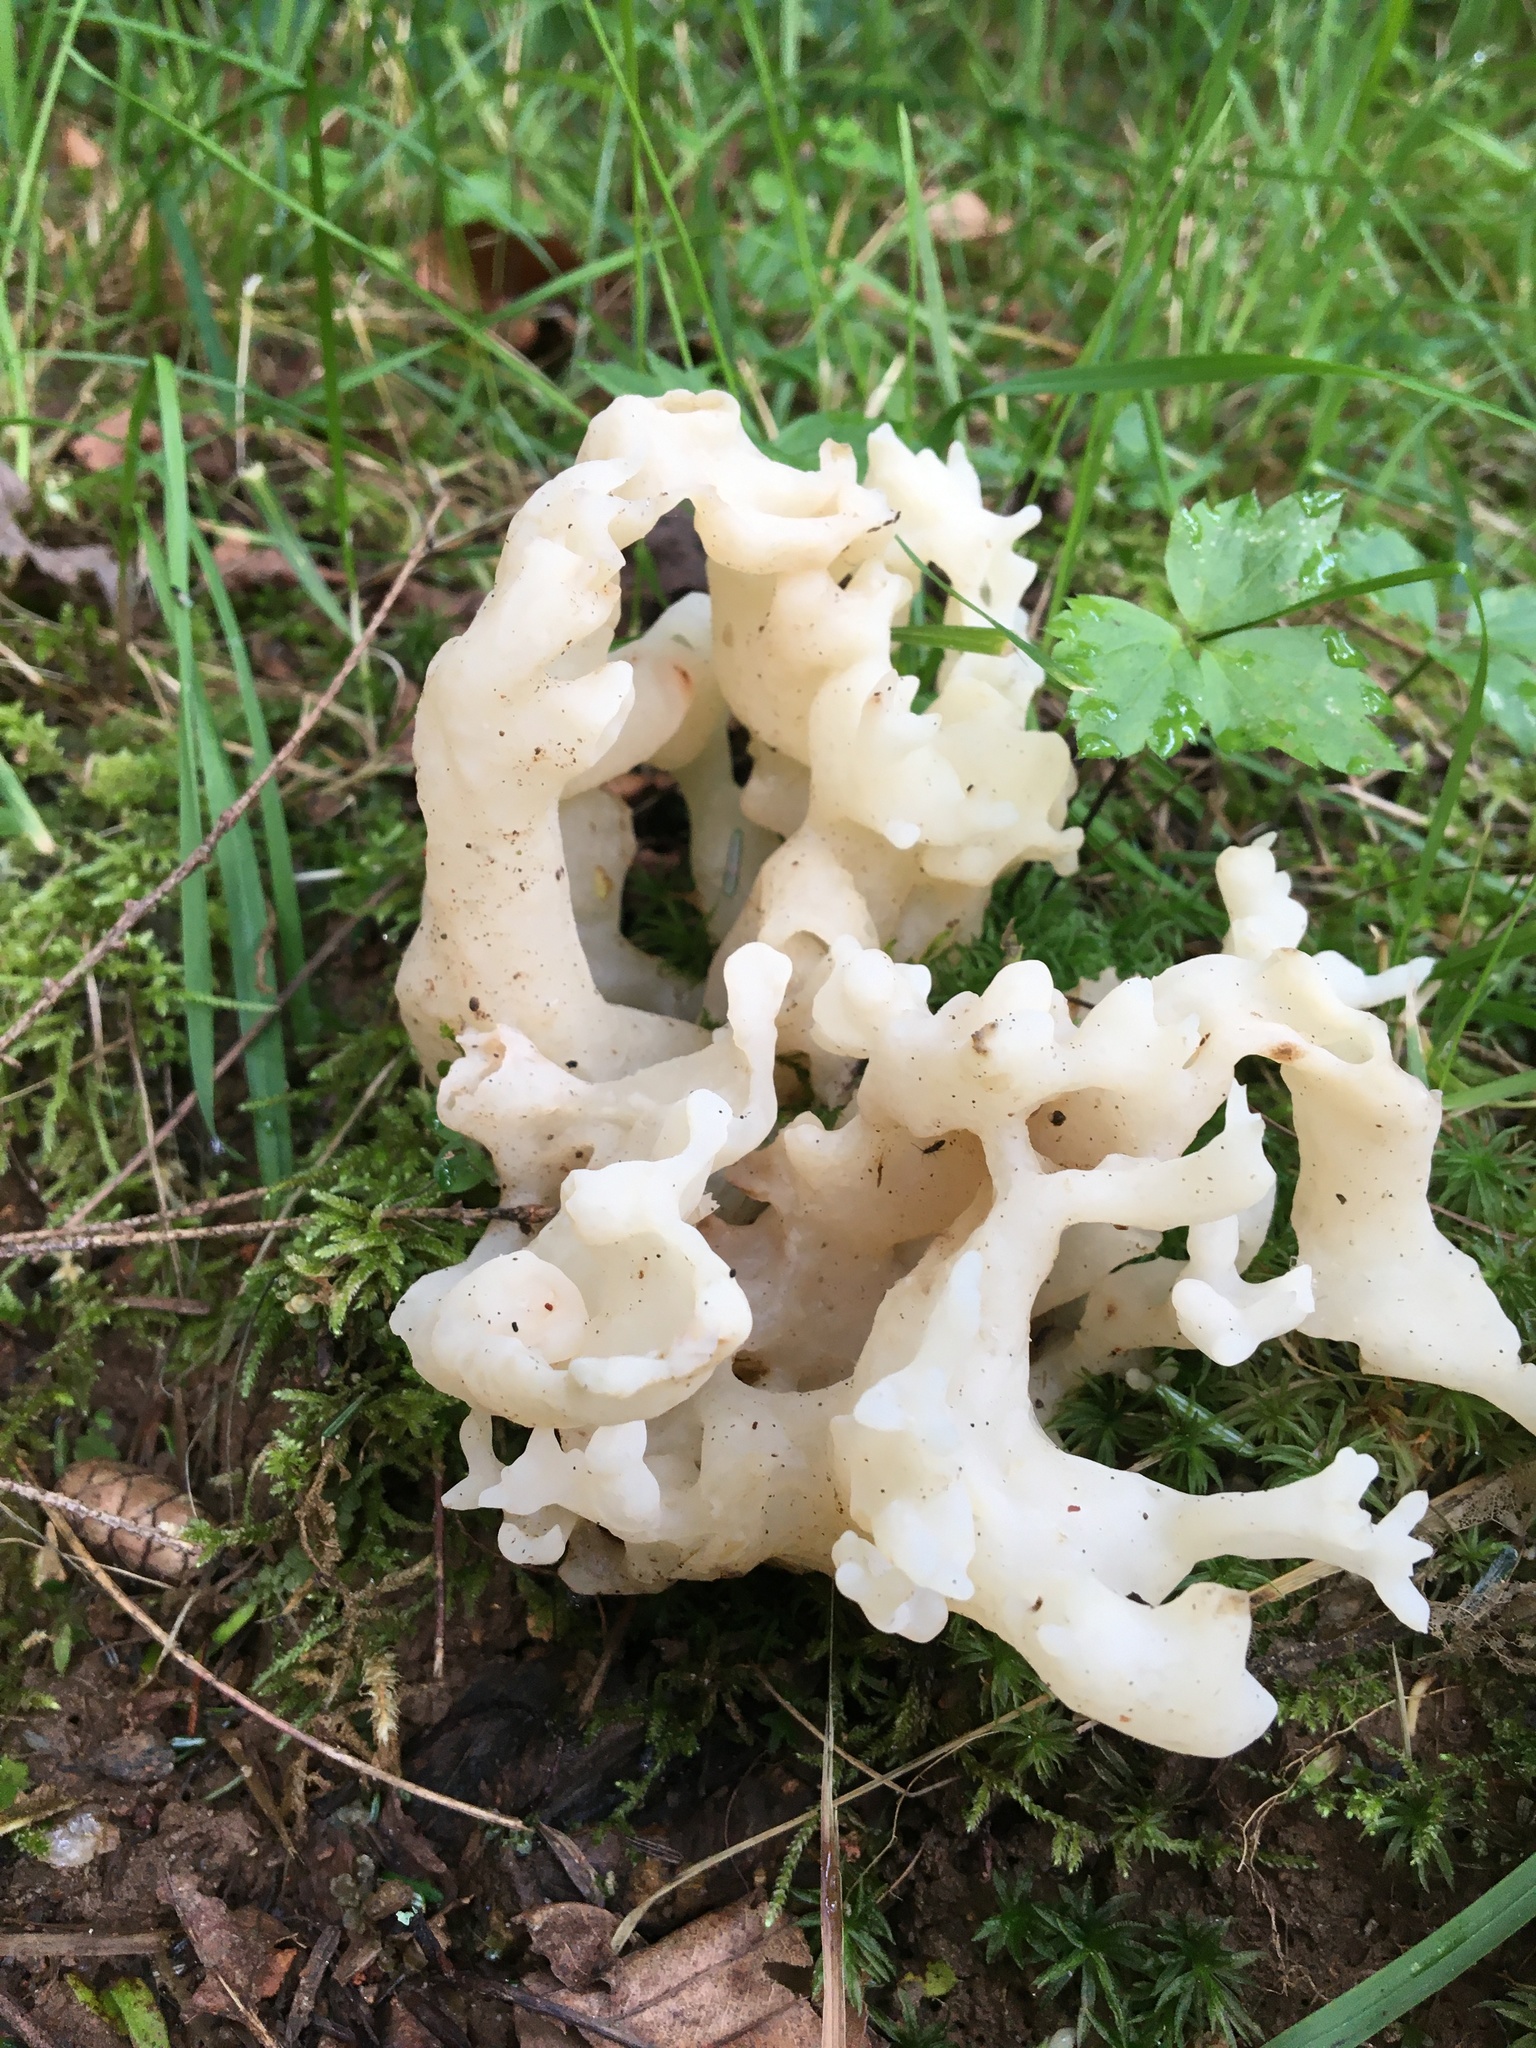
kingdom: Fungi
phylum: Basidiomycota
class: Agaricomycetes
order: Sebacinales
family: Sebacinaceae
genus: Sebacina
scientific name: Sebacina sparassoidea
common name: White coral jelly fungus
